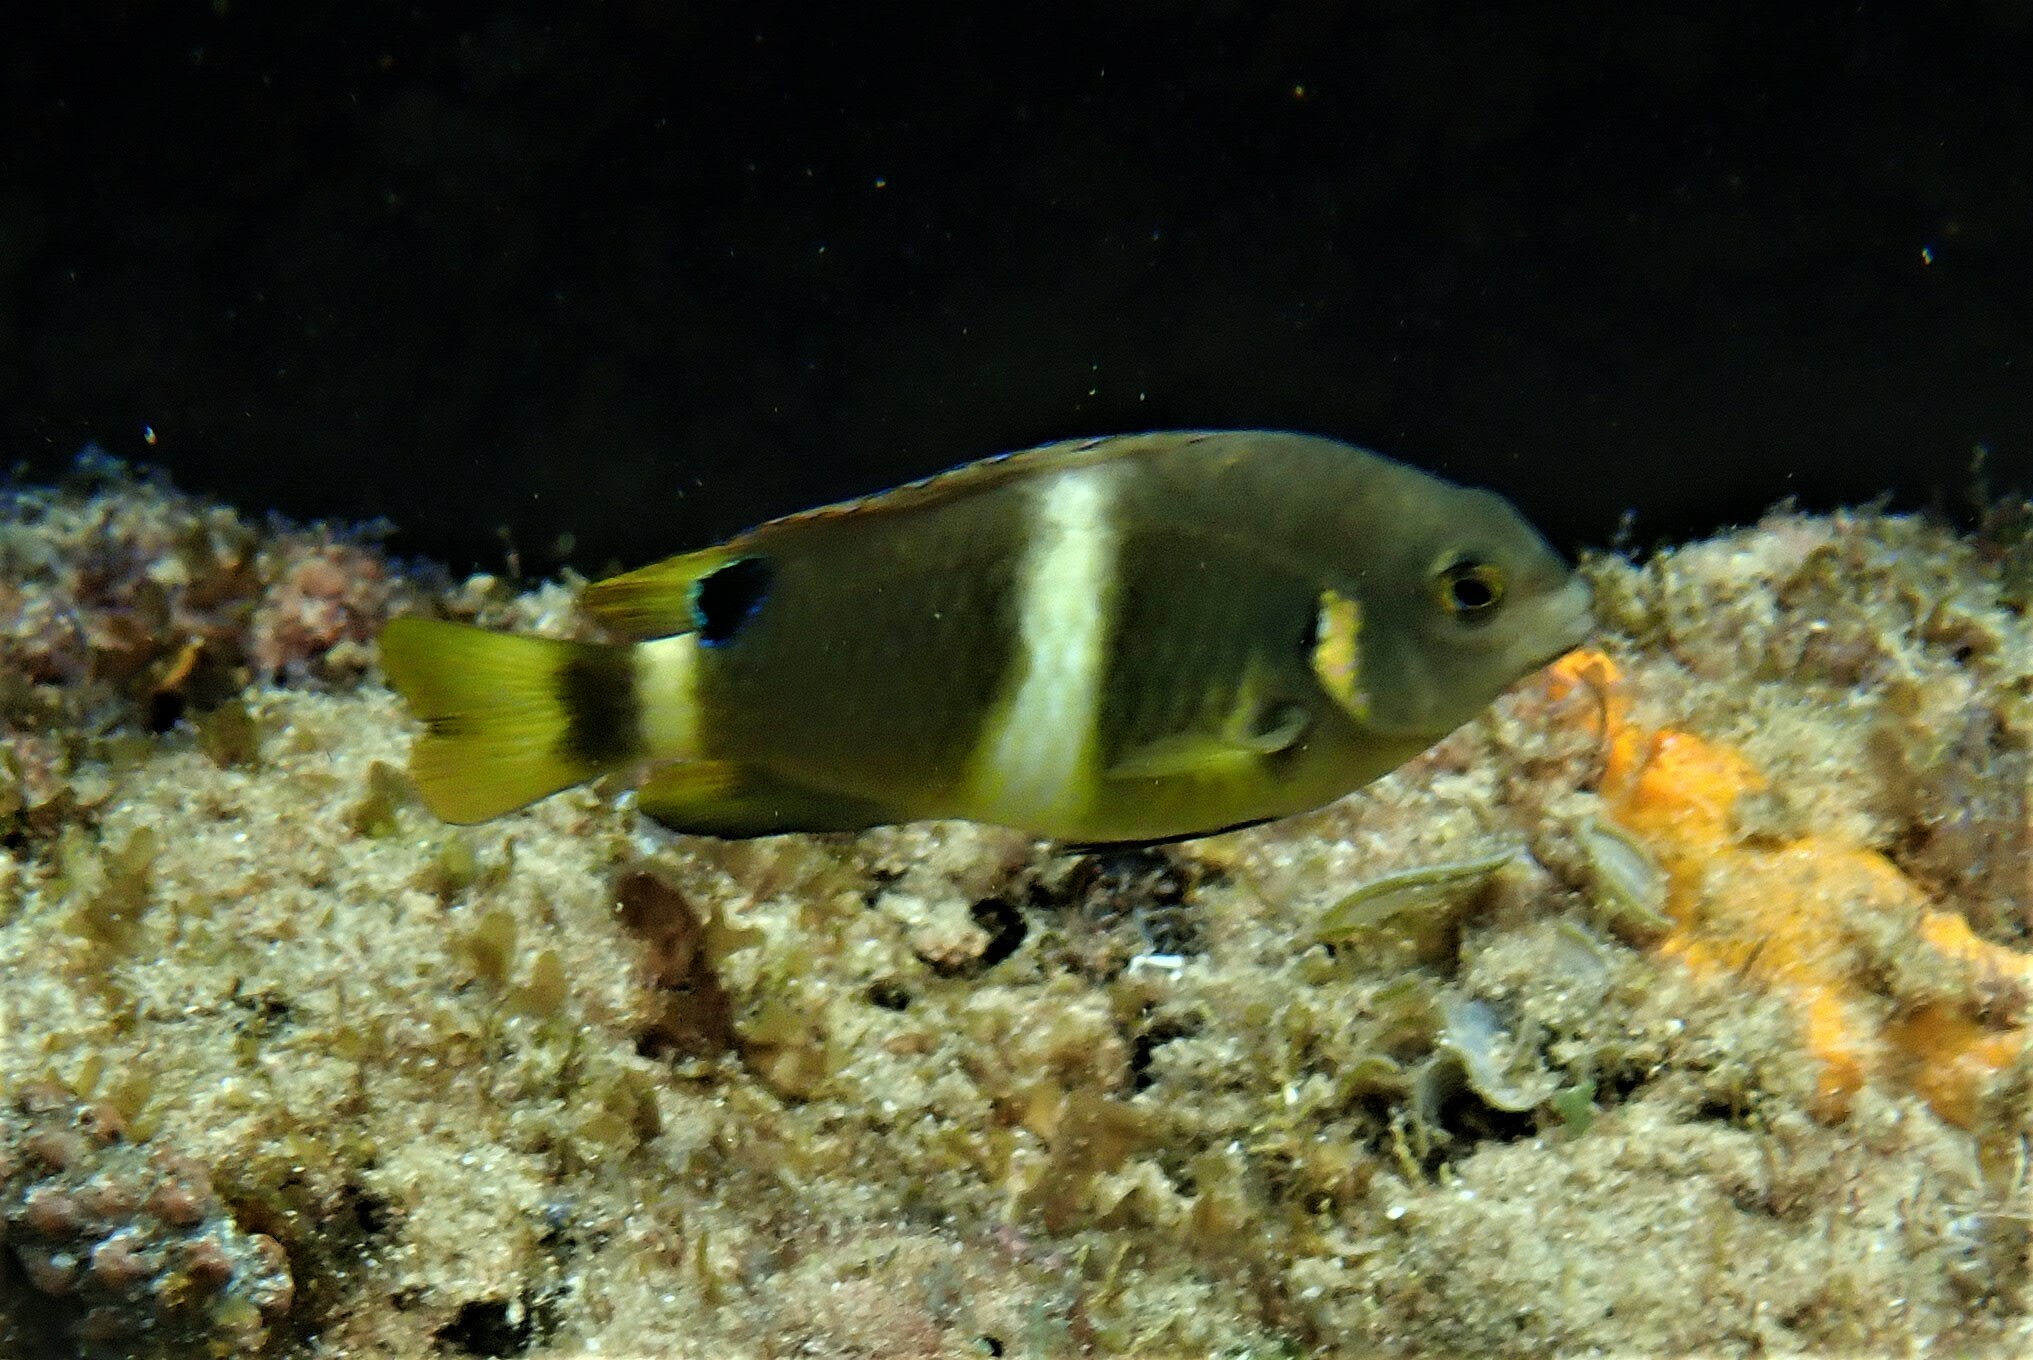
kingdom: Animalia
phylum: Chordata
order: Perciformes
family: Pomacentridae
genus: Chrysiptera
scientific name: Chrysiptera brownriggii
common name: Surge demoiselle
